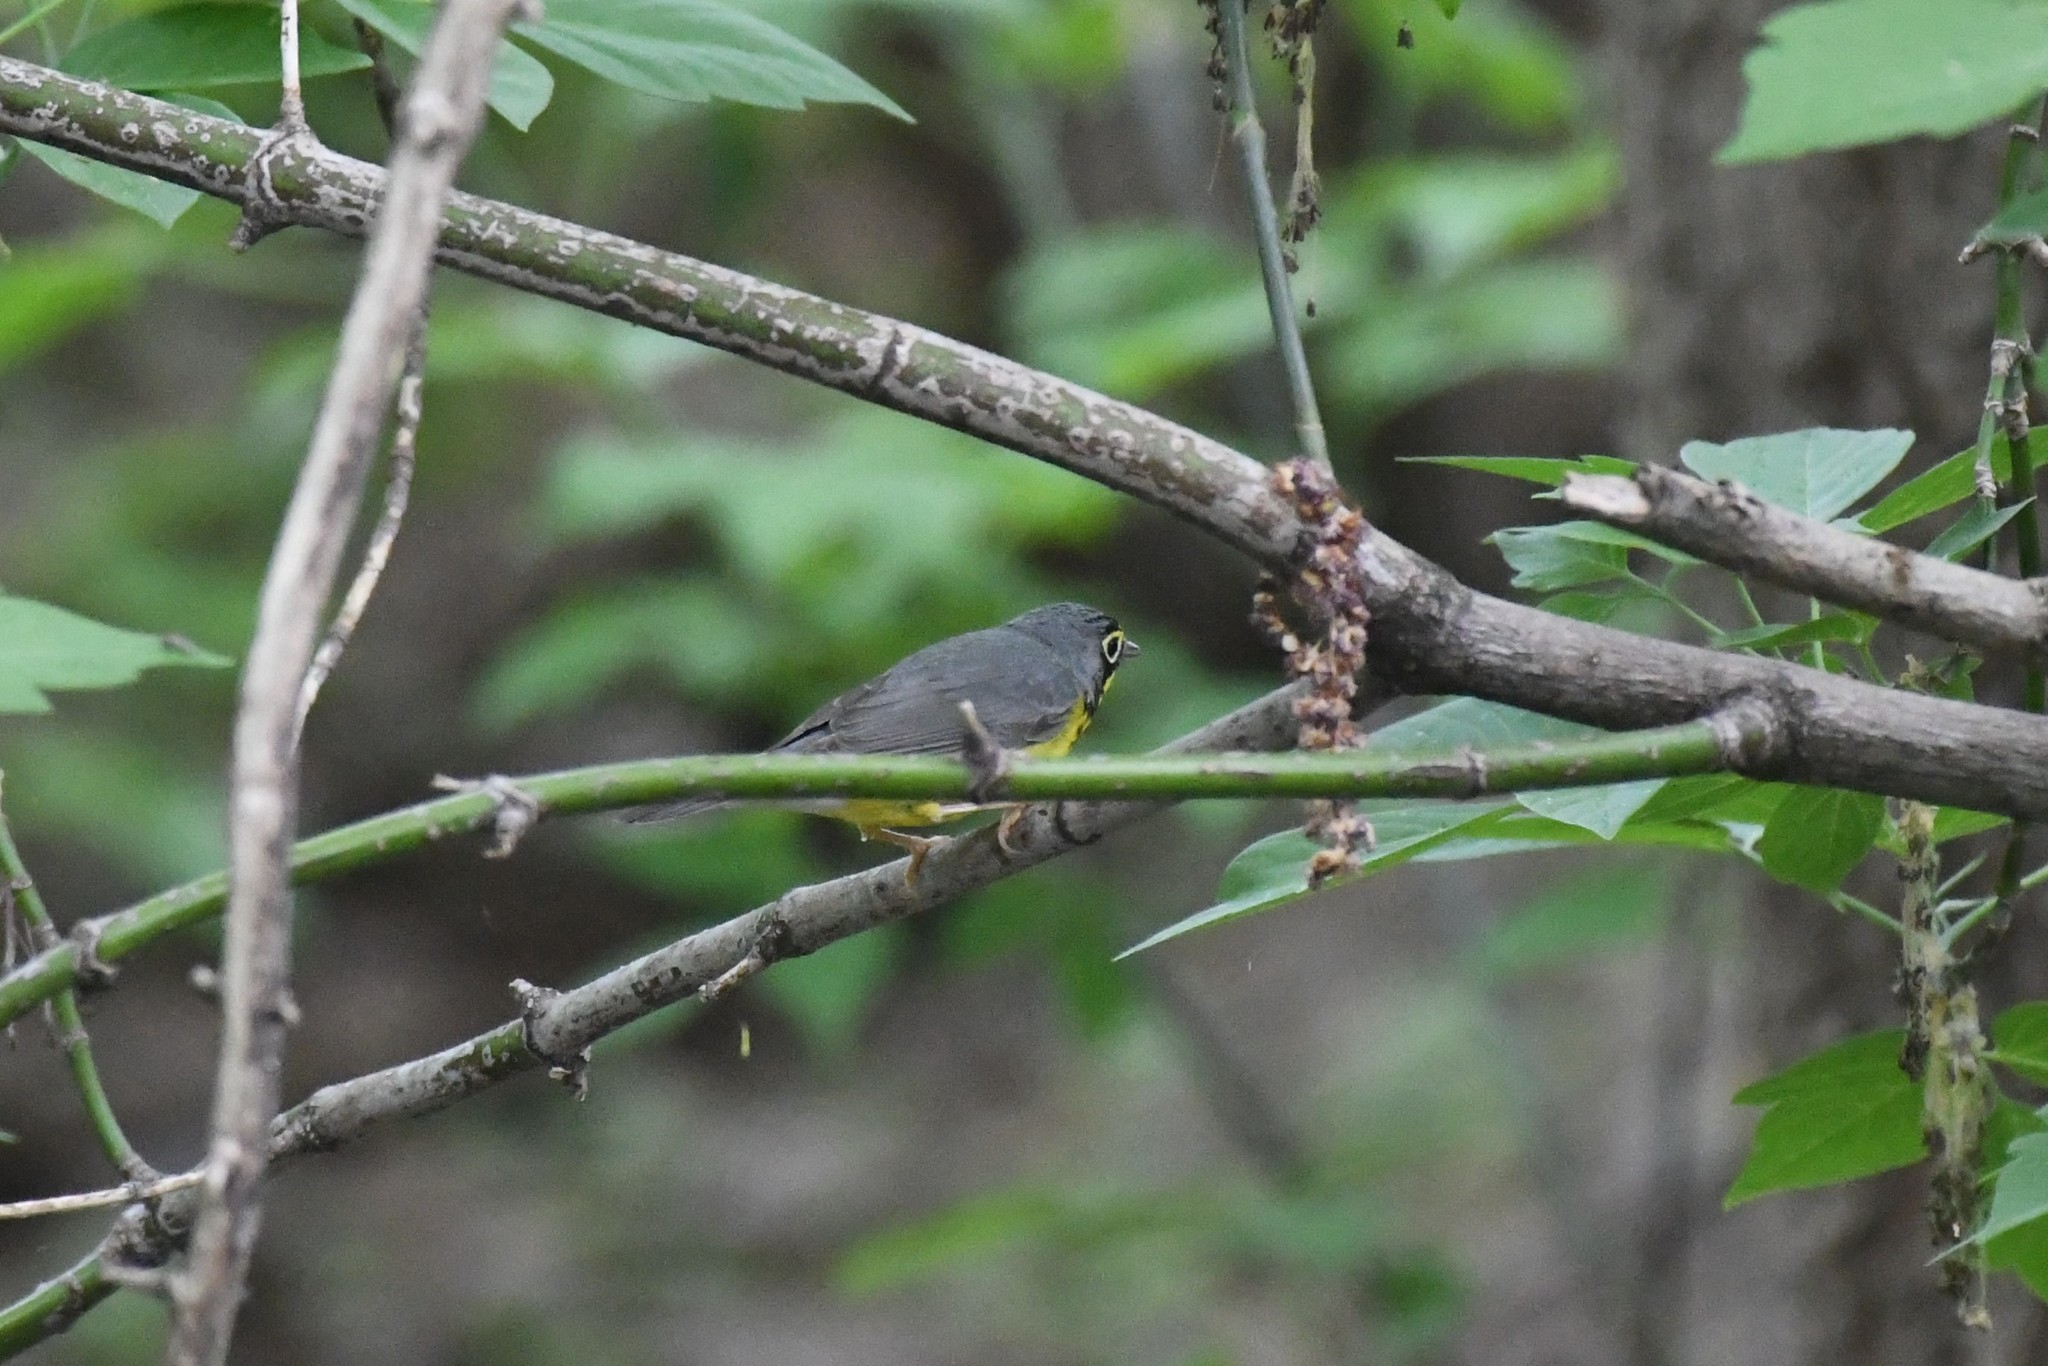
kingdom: Animalia
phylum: Chordata
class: Aves
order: Passeriformes
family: Parulidae
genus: Cardellina
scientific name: Cardellina canadensis
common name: Canada warbler
